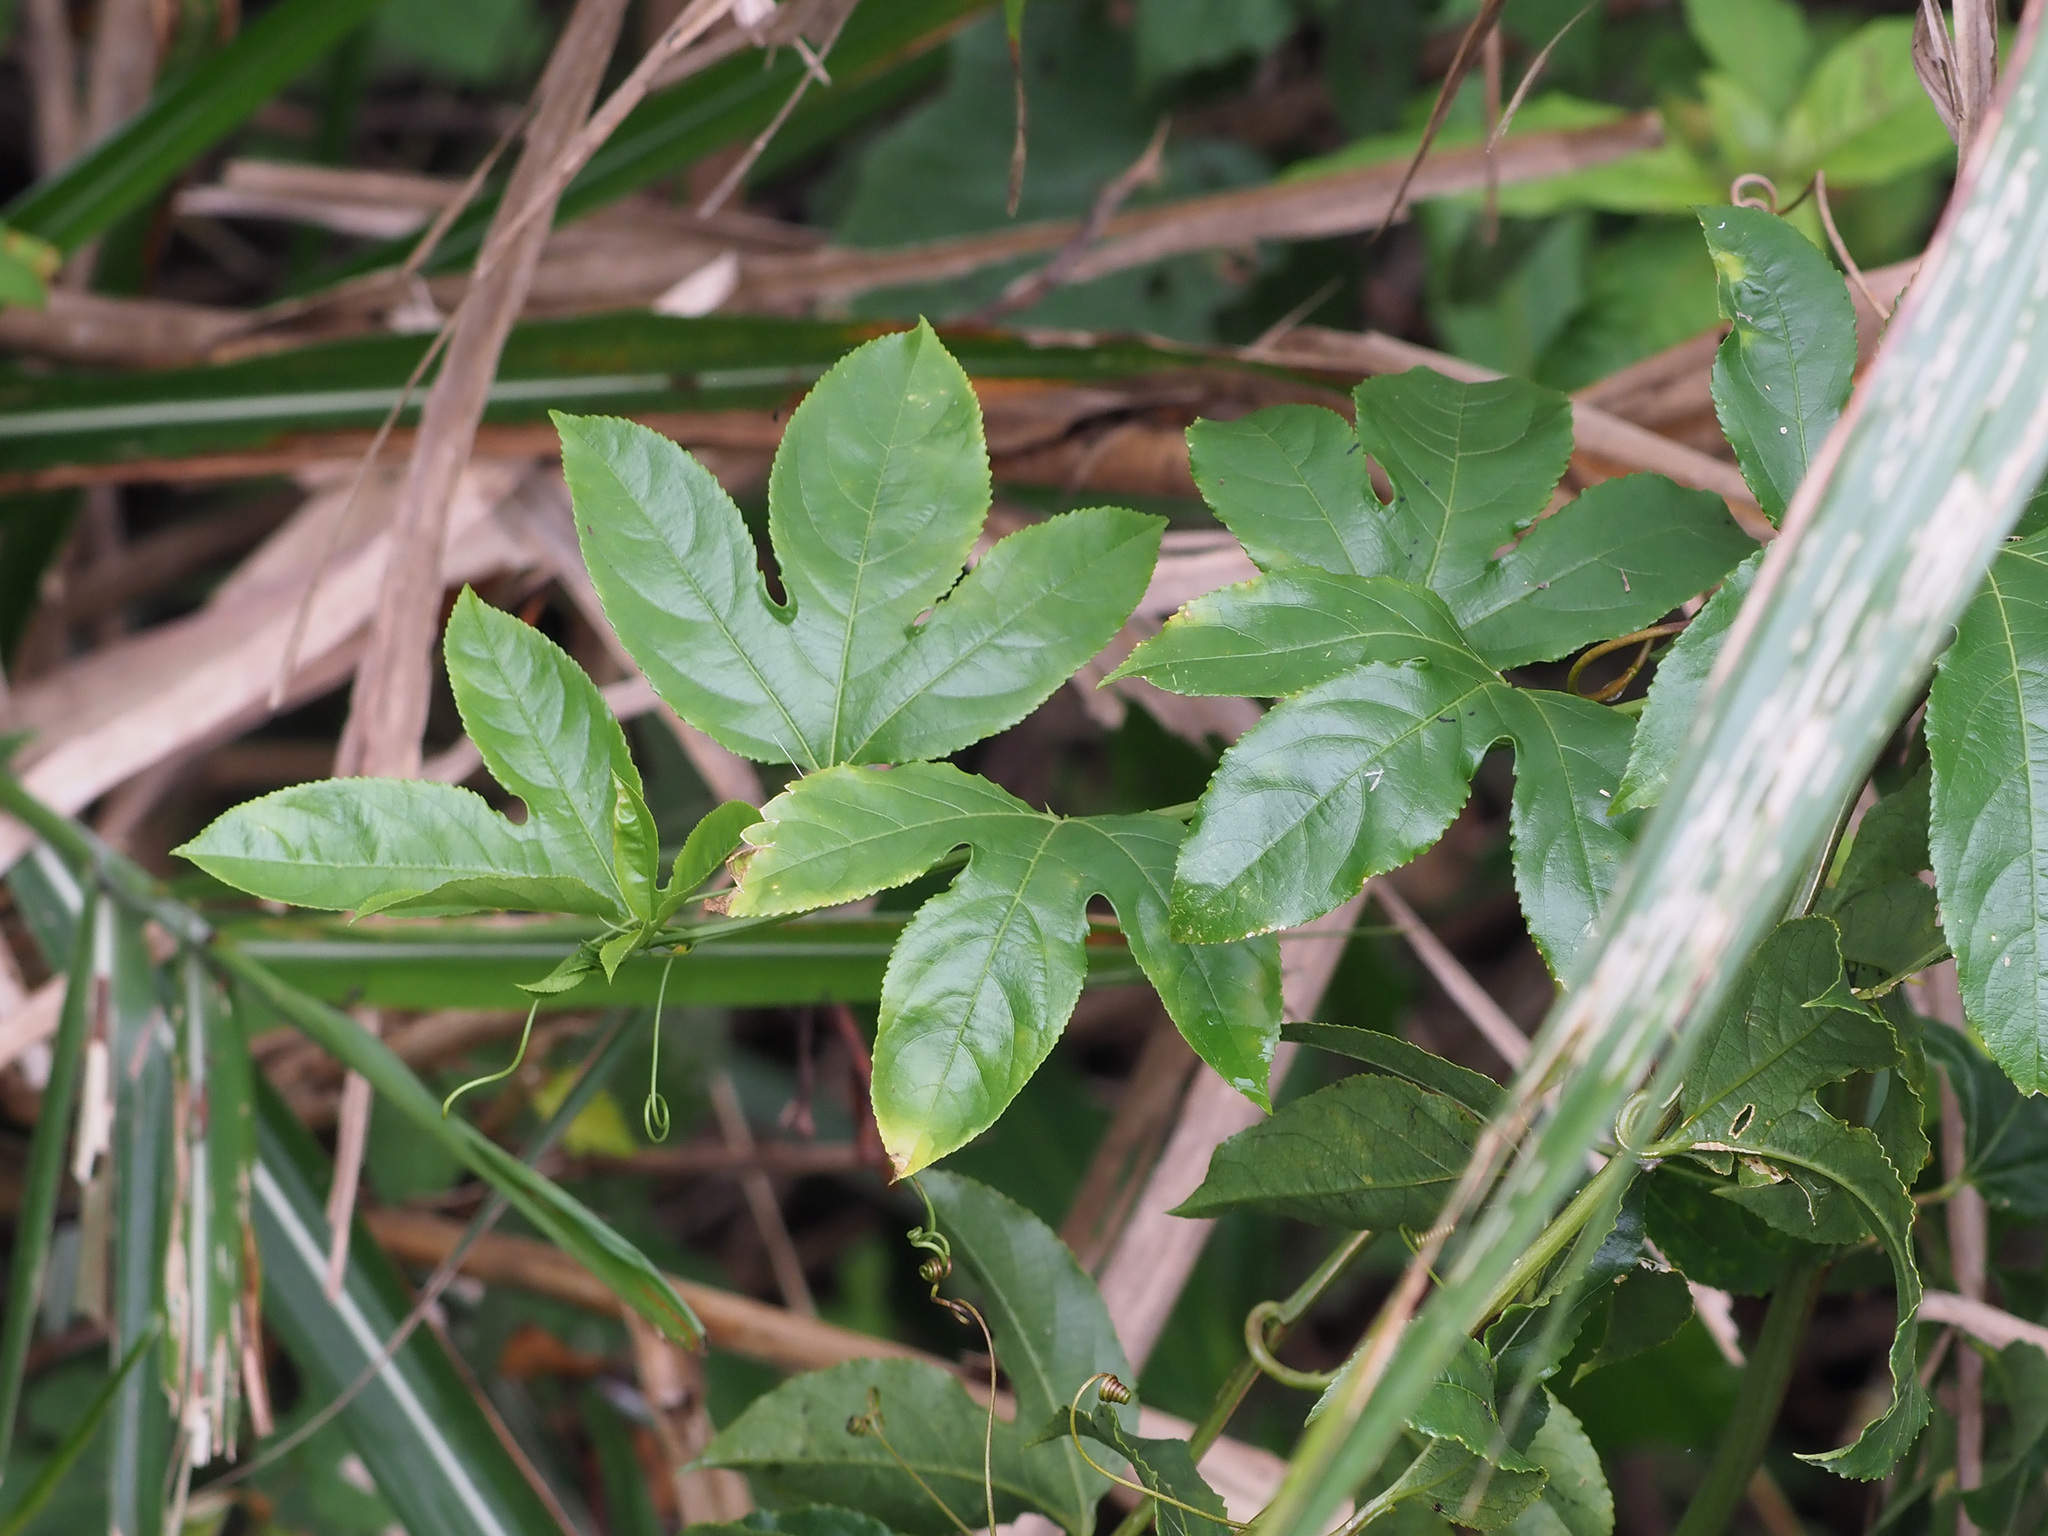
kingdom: Plantae
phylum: Tracheophyta
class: Magnoliopsida
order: Malpighiales
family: Passifloraceae
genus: Passiflora
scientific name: Passiflora edulis
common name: Purple granadilla
